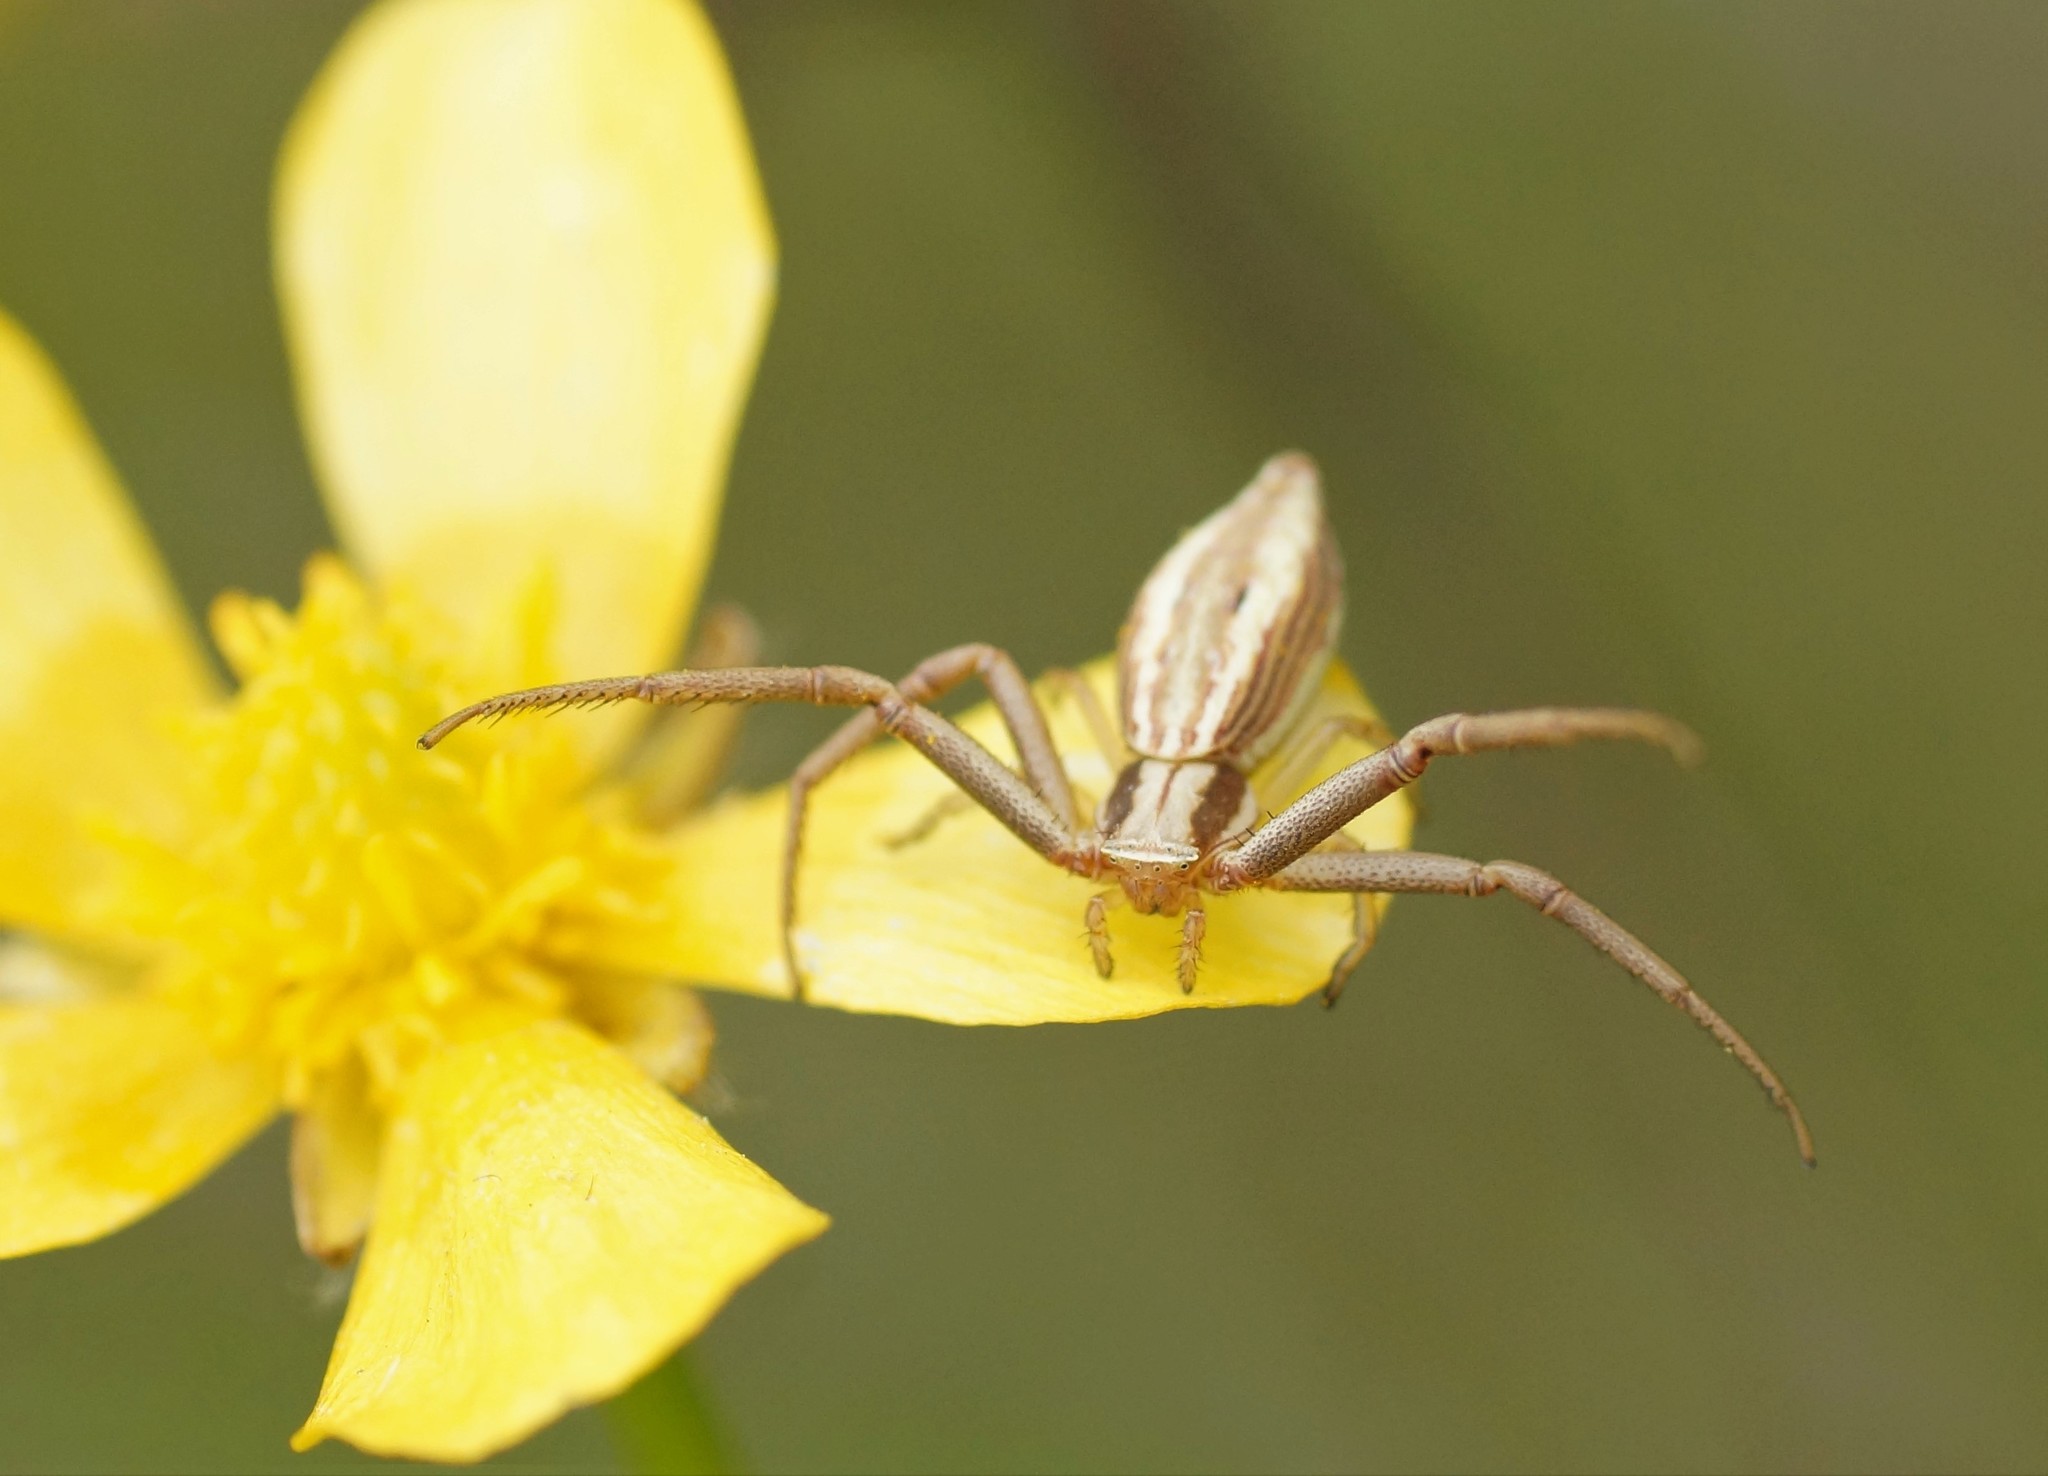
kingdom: Animalia
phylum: Arthropoda
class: Arachnida
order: Araneae
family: Thomisidae
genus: Runcinia
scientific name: Runcinia acuminata
